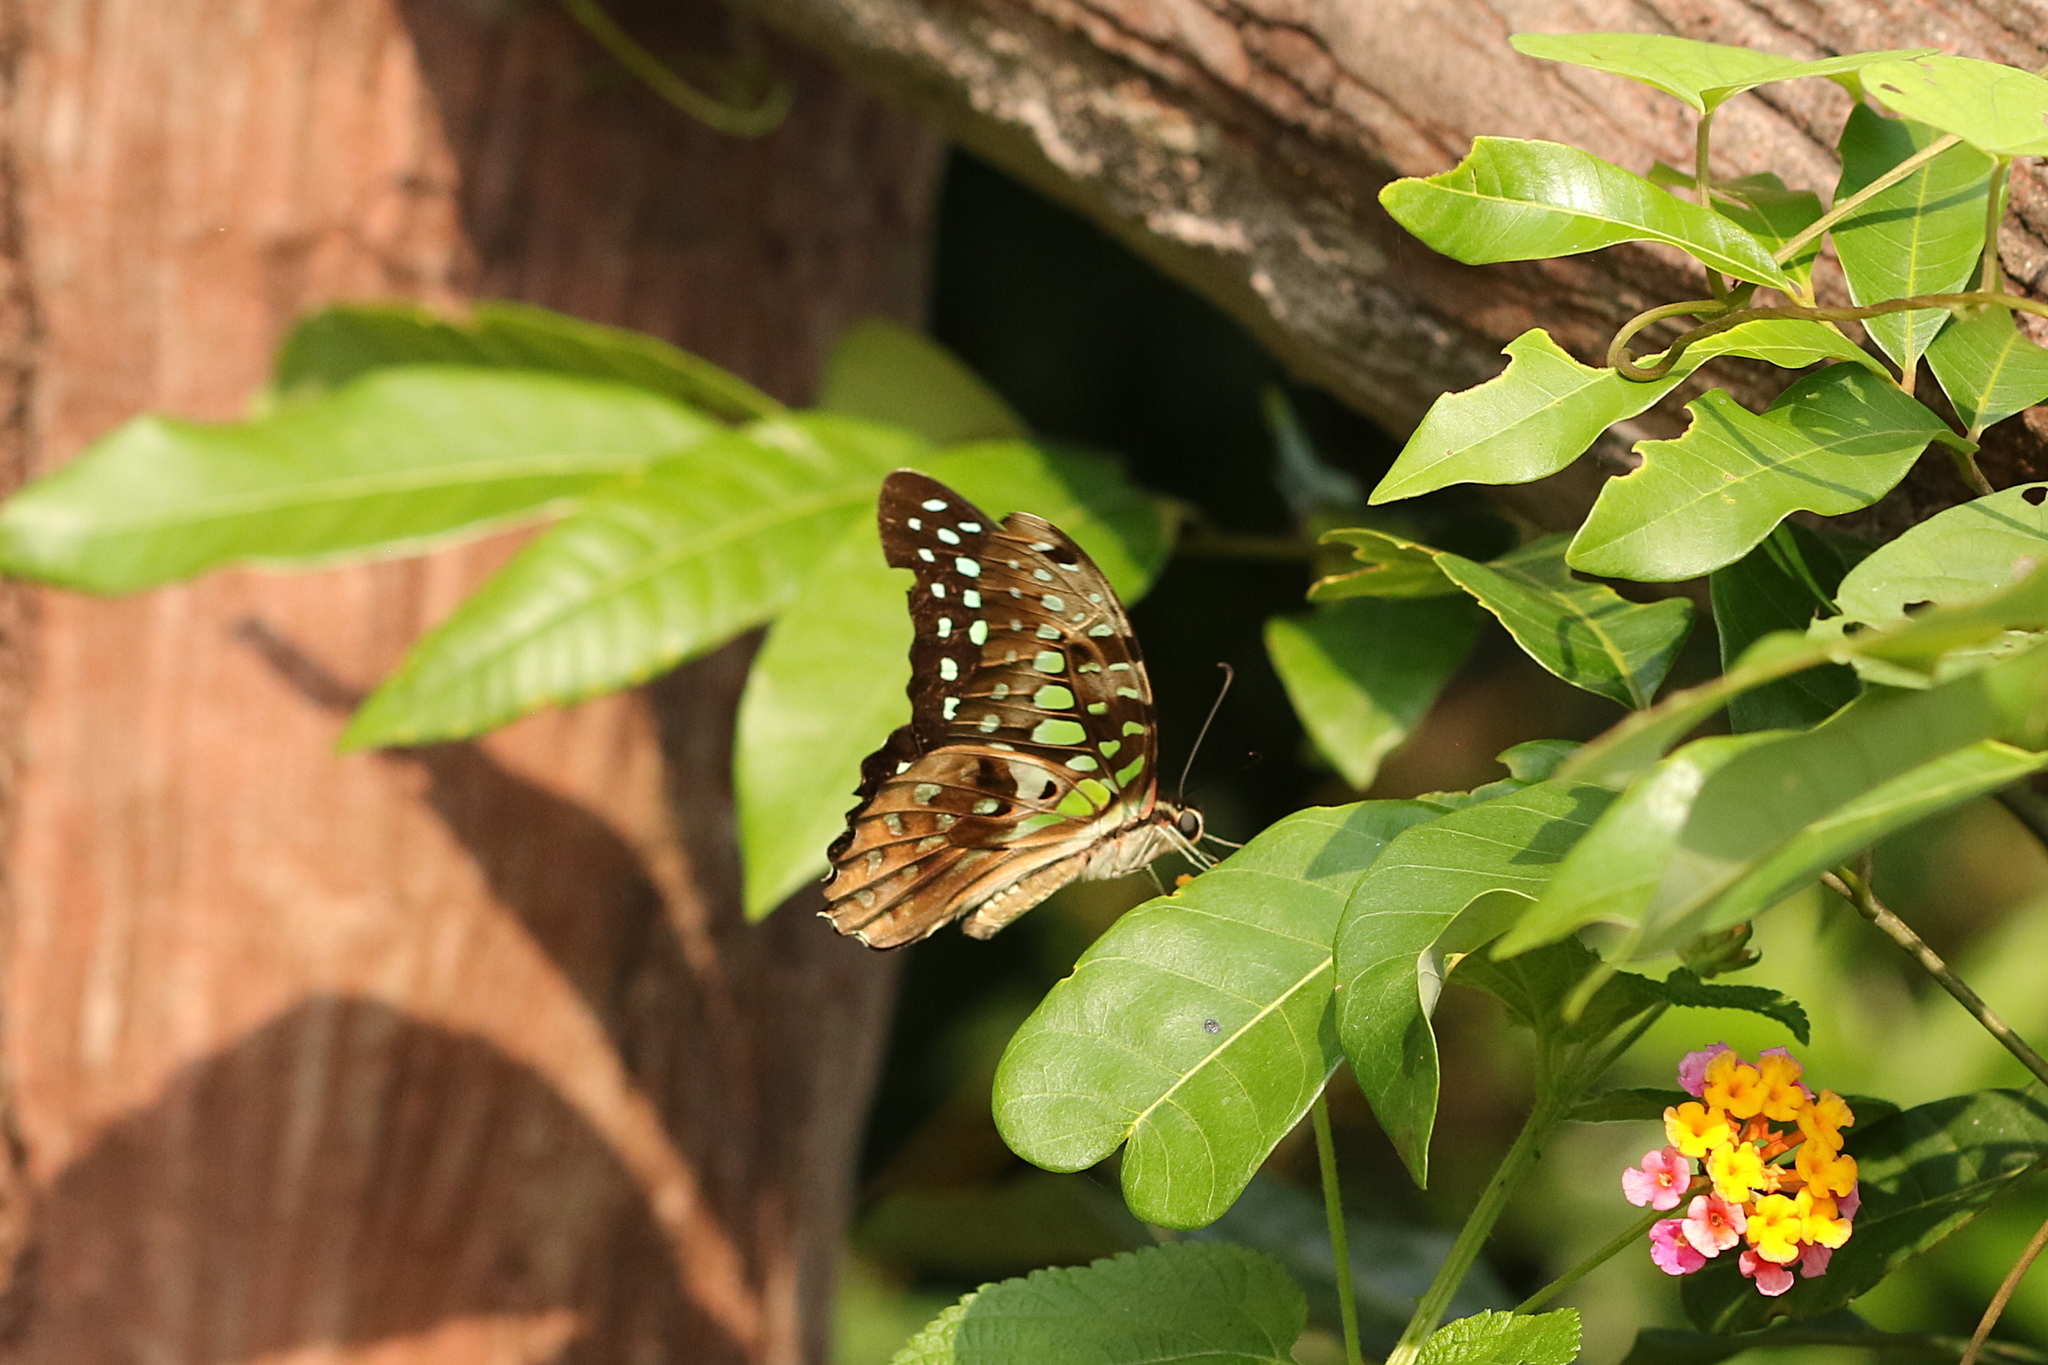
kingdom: Animalia
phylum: Arthropoda
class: Insecta
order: Lepidoptera
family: Papilionidae
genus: Graphium
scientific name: Graphium agamemnon
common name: Tailed jay
